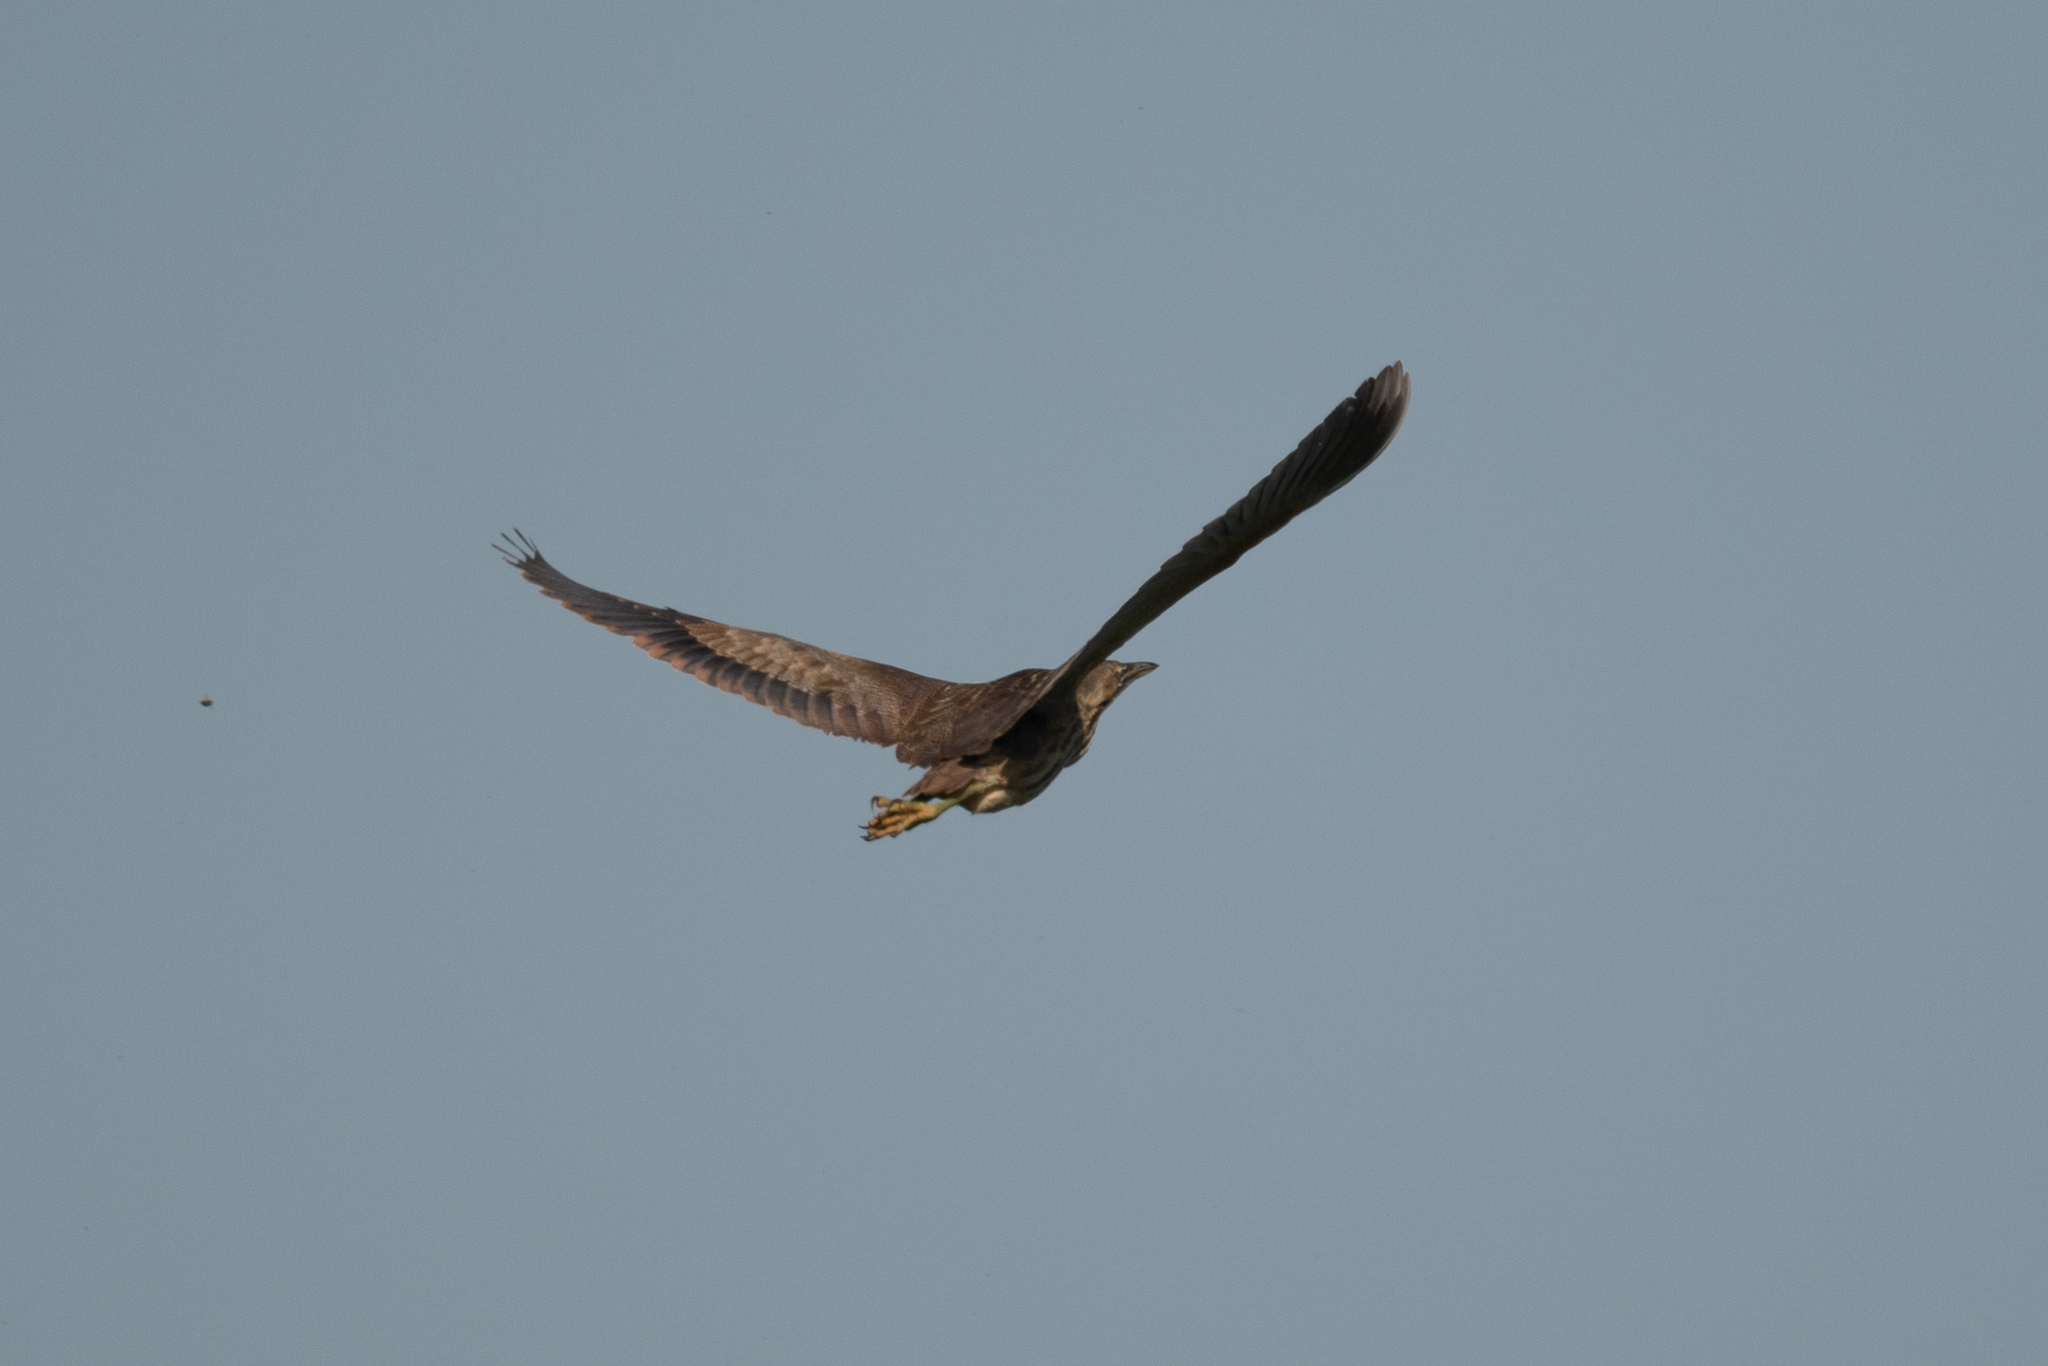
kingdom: Animalia
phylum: Chordata
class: Aves
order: Pelecaniformes
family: Ardeidae
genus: Botaurus
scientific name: Botaurus lentiginosus
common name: American bittern
